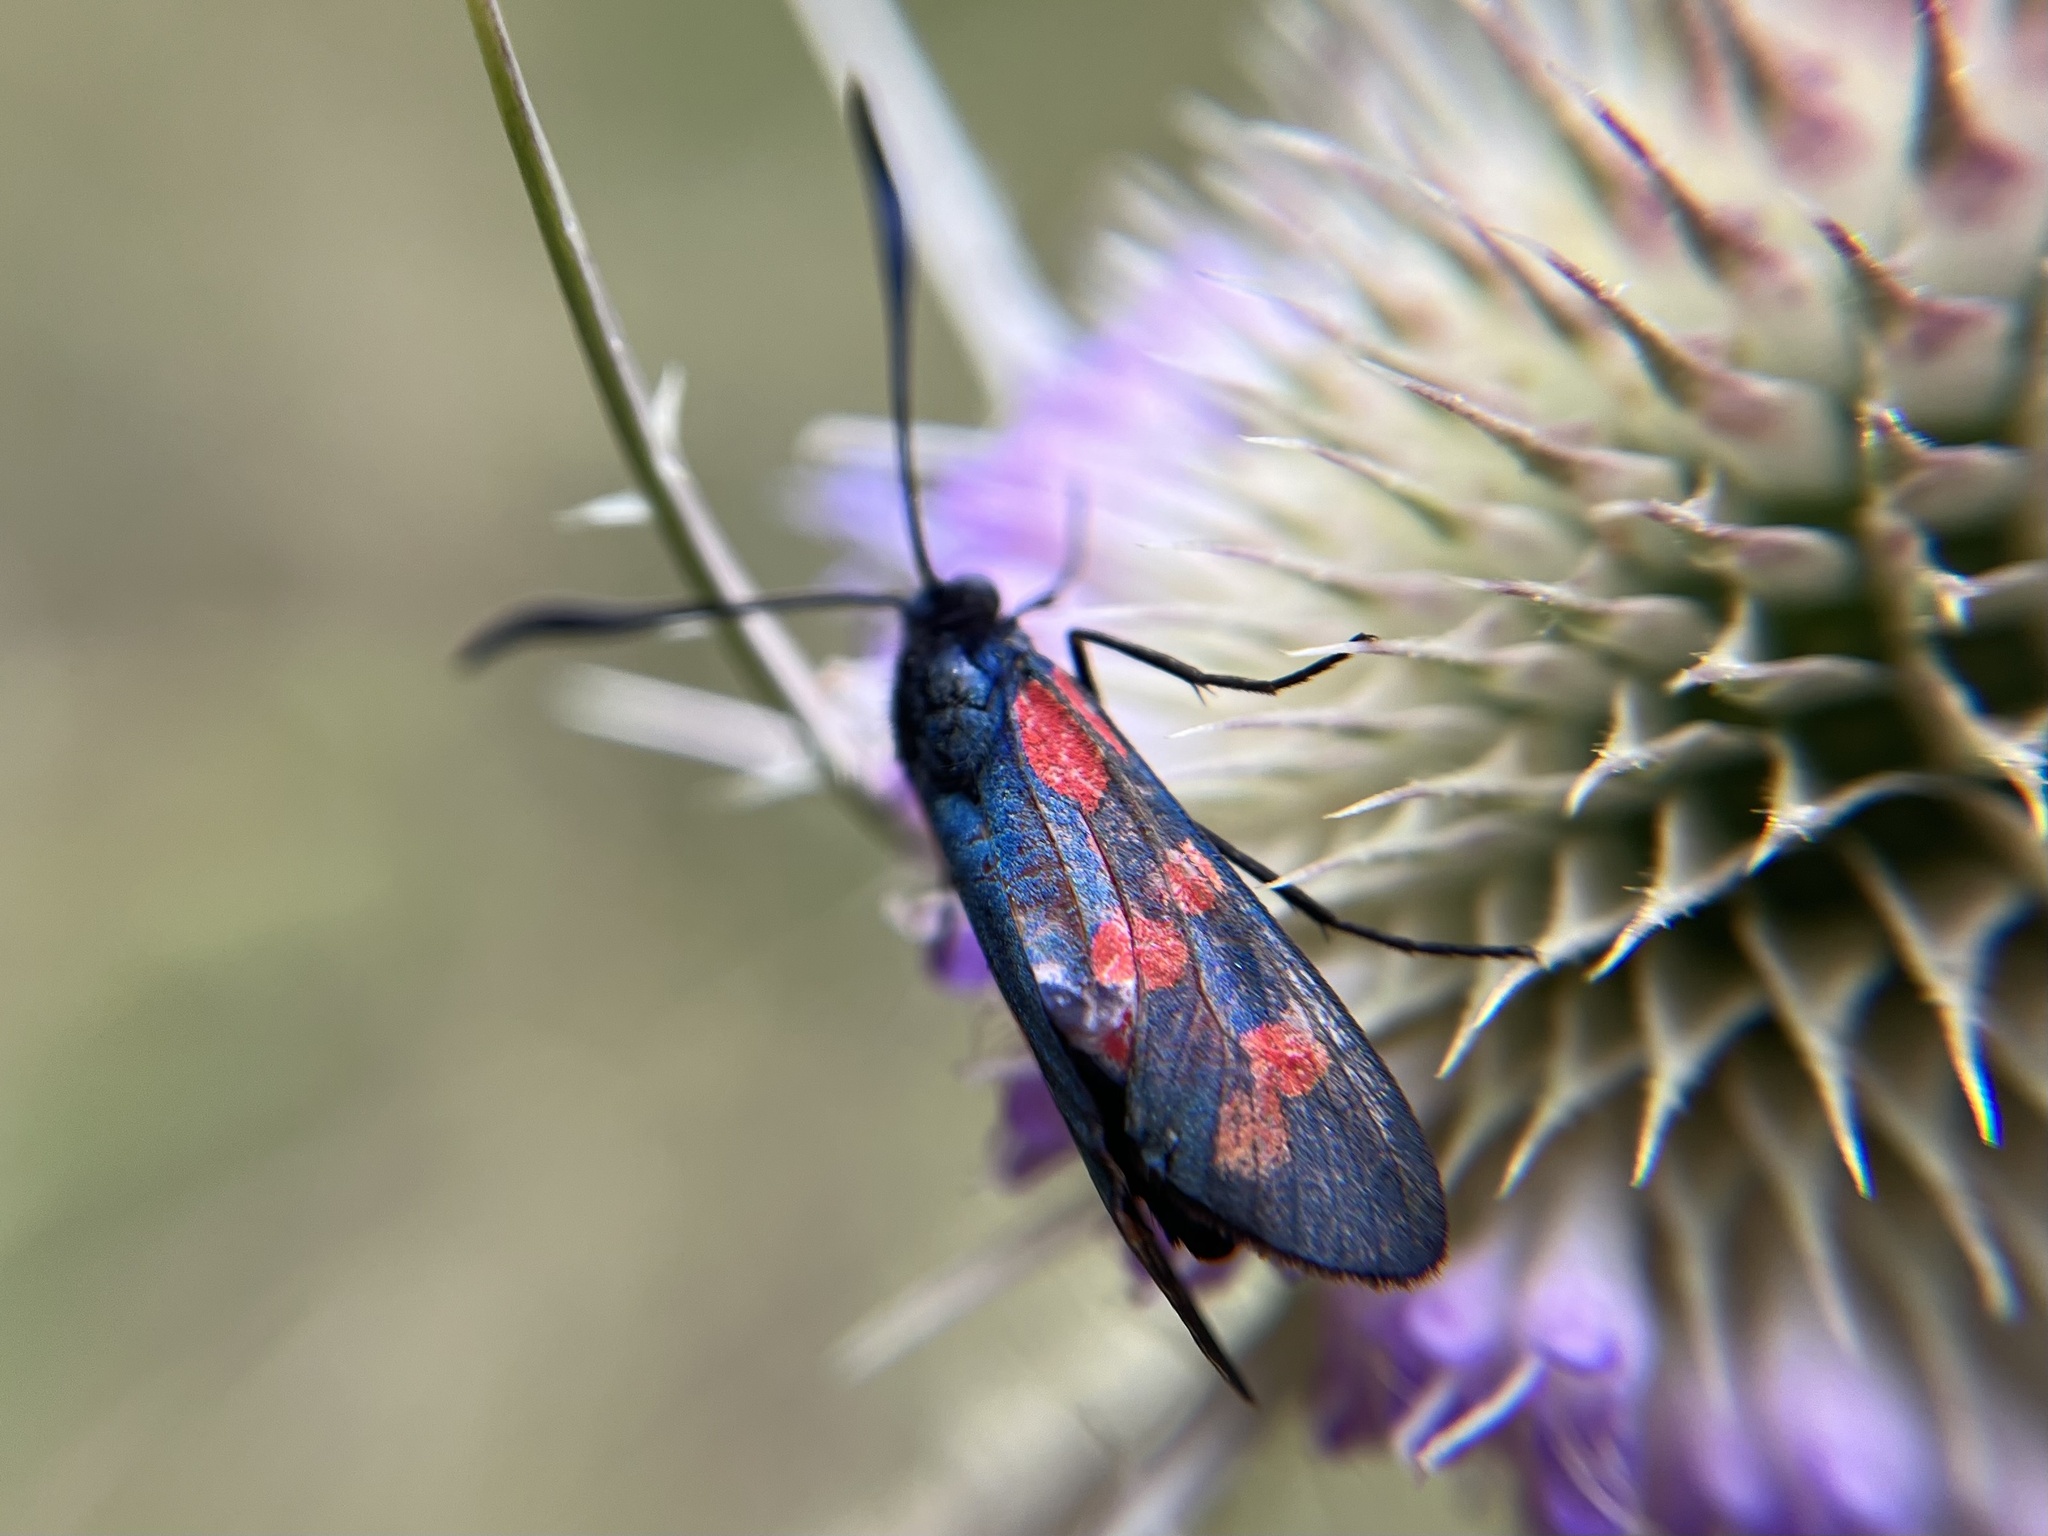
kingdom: Animalia
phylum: Arthropoda
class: Insecta
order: Lepidoptera
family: Zygaenidae
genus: Zygaena
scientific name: Zygaena filipendulae
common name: Six-spot burnet
